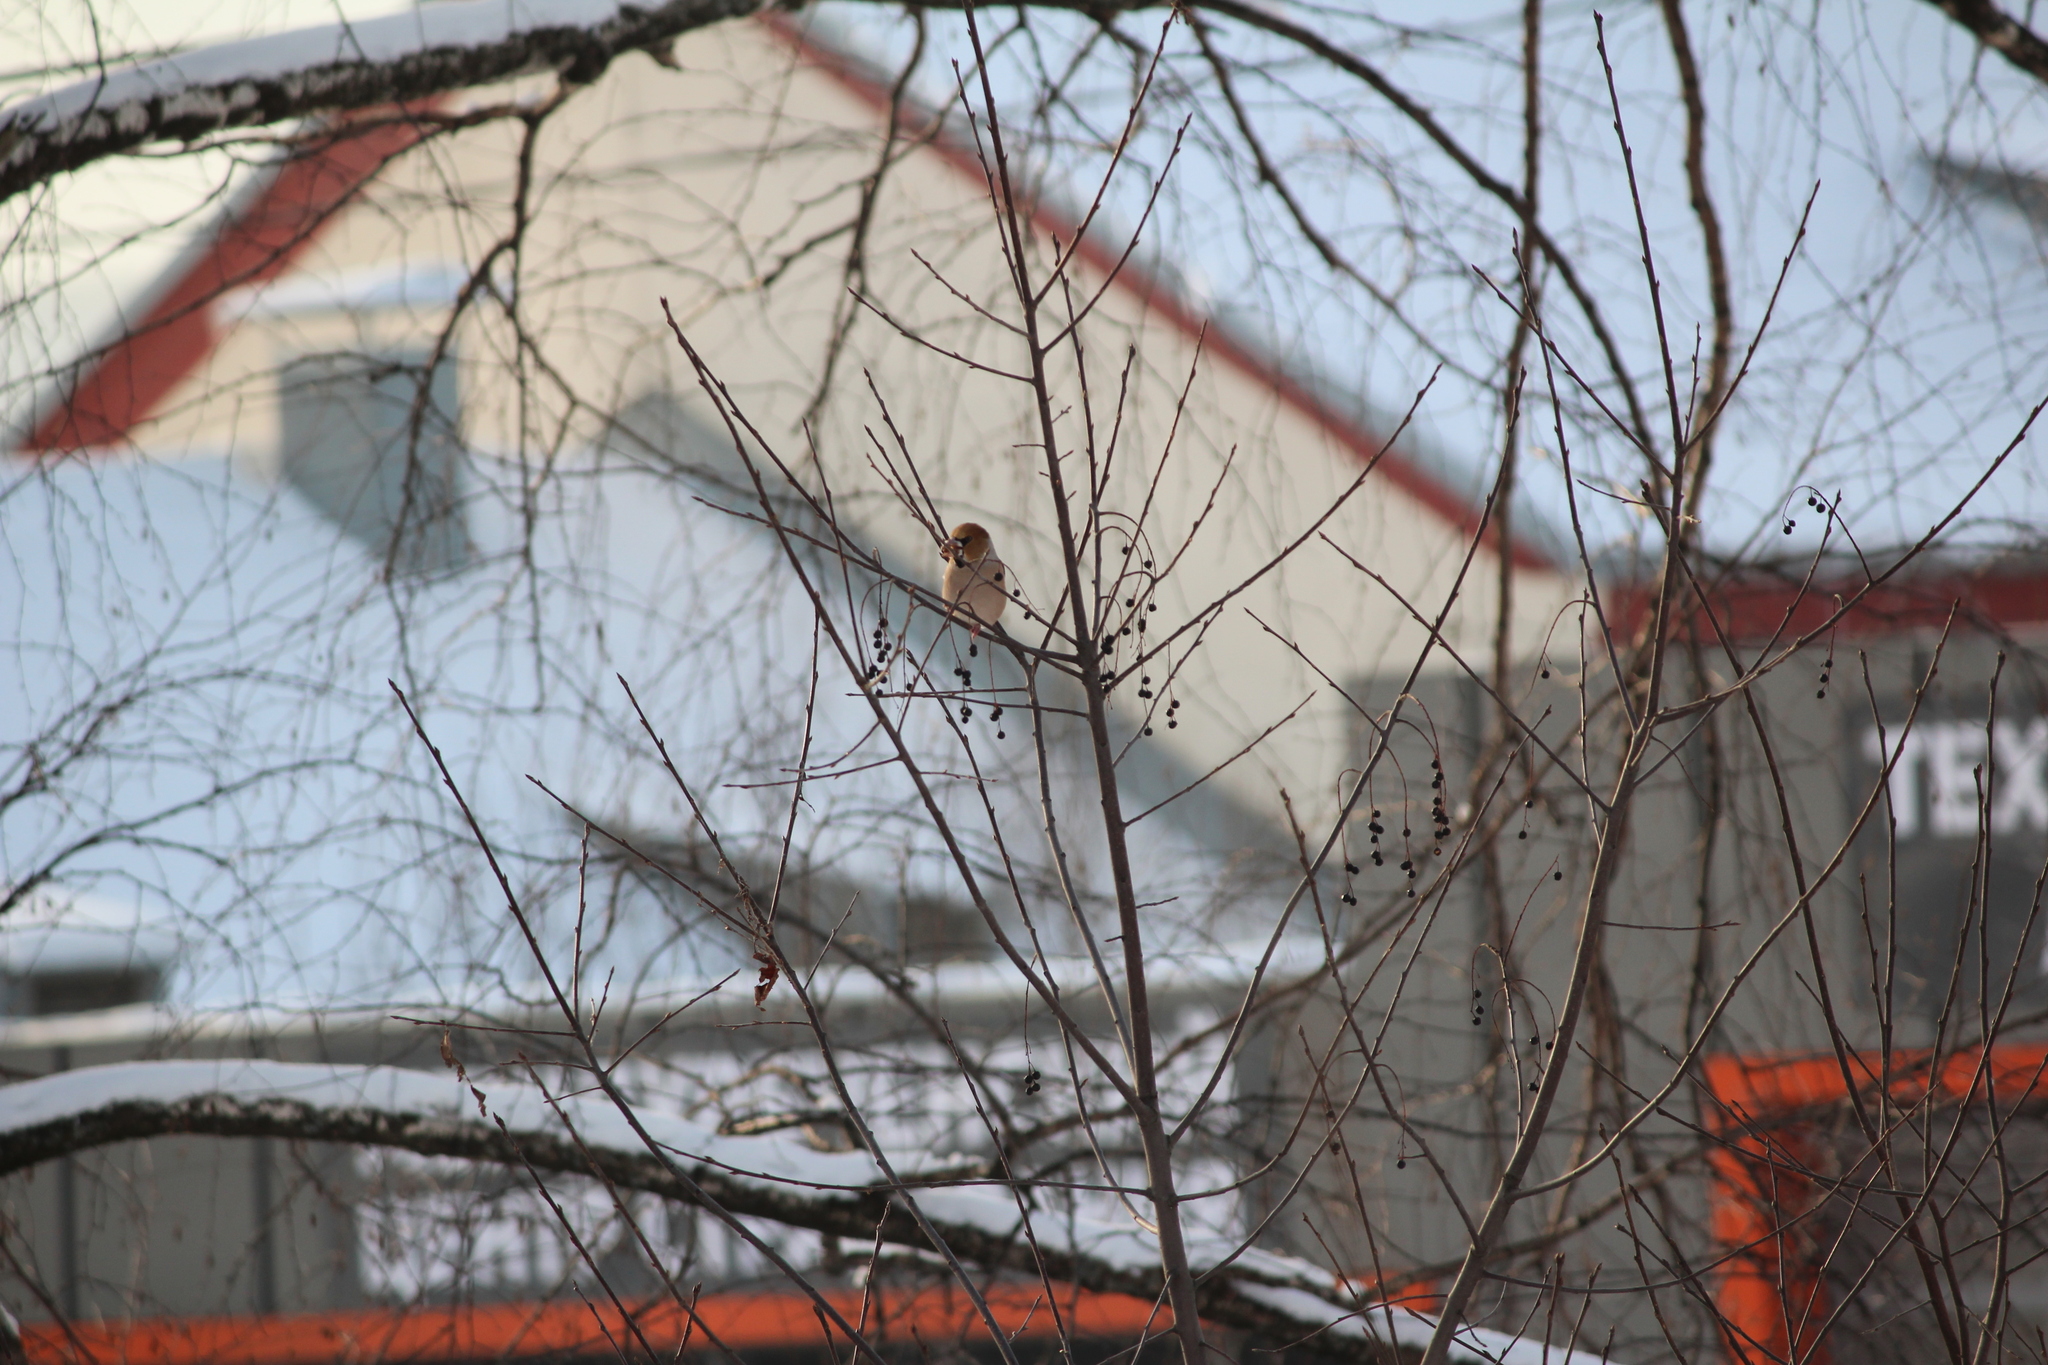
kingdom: Animalia
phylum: Chordata
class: Aves
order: Passeriformes
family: Fringillidae
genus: Coccothraustes
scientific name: Coccothraustes coccothraustes
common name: Hawfinch
